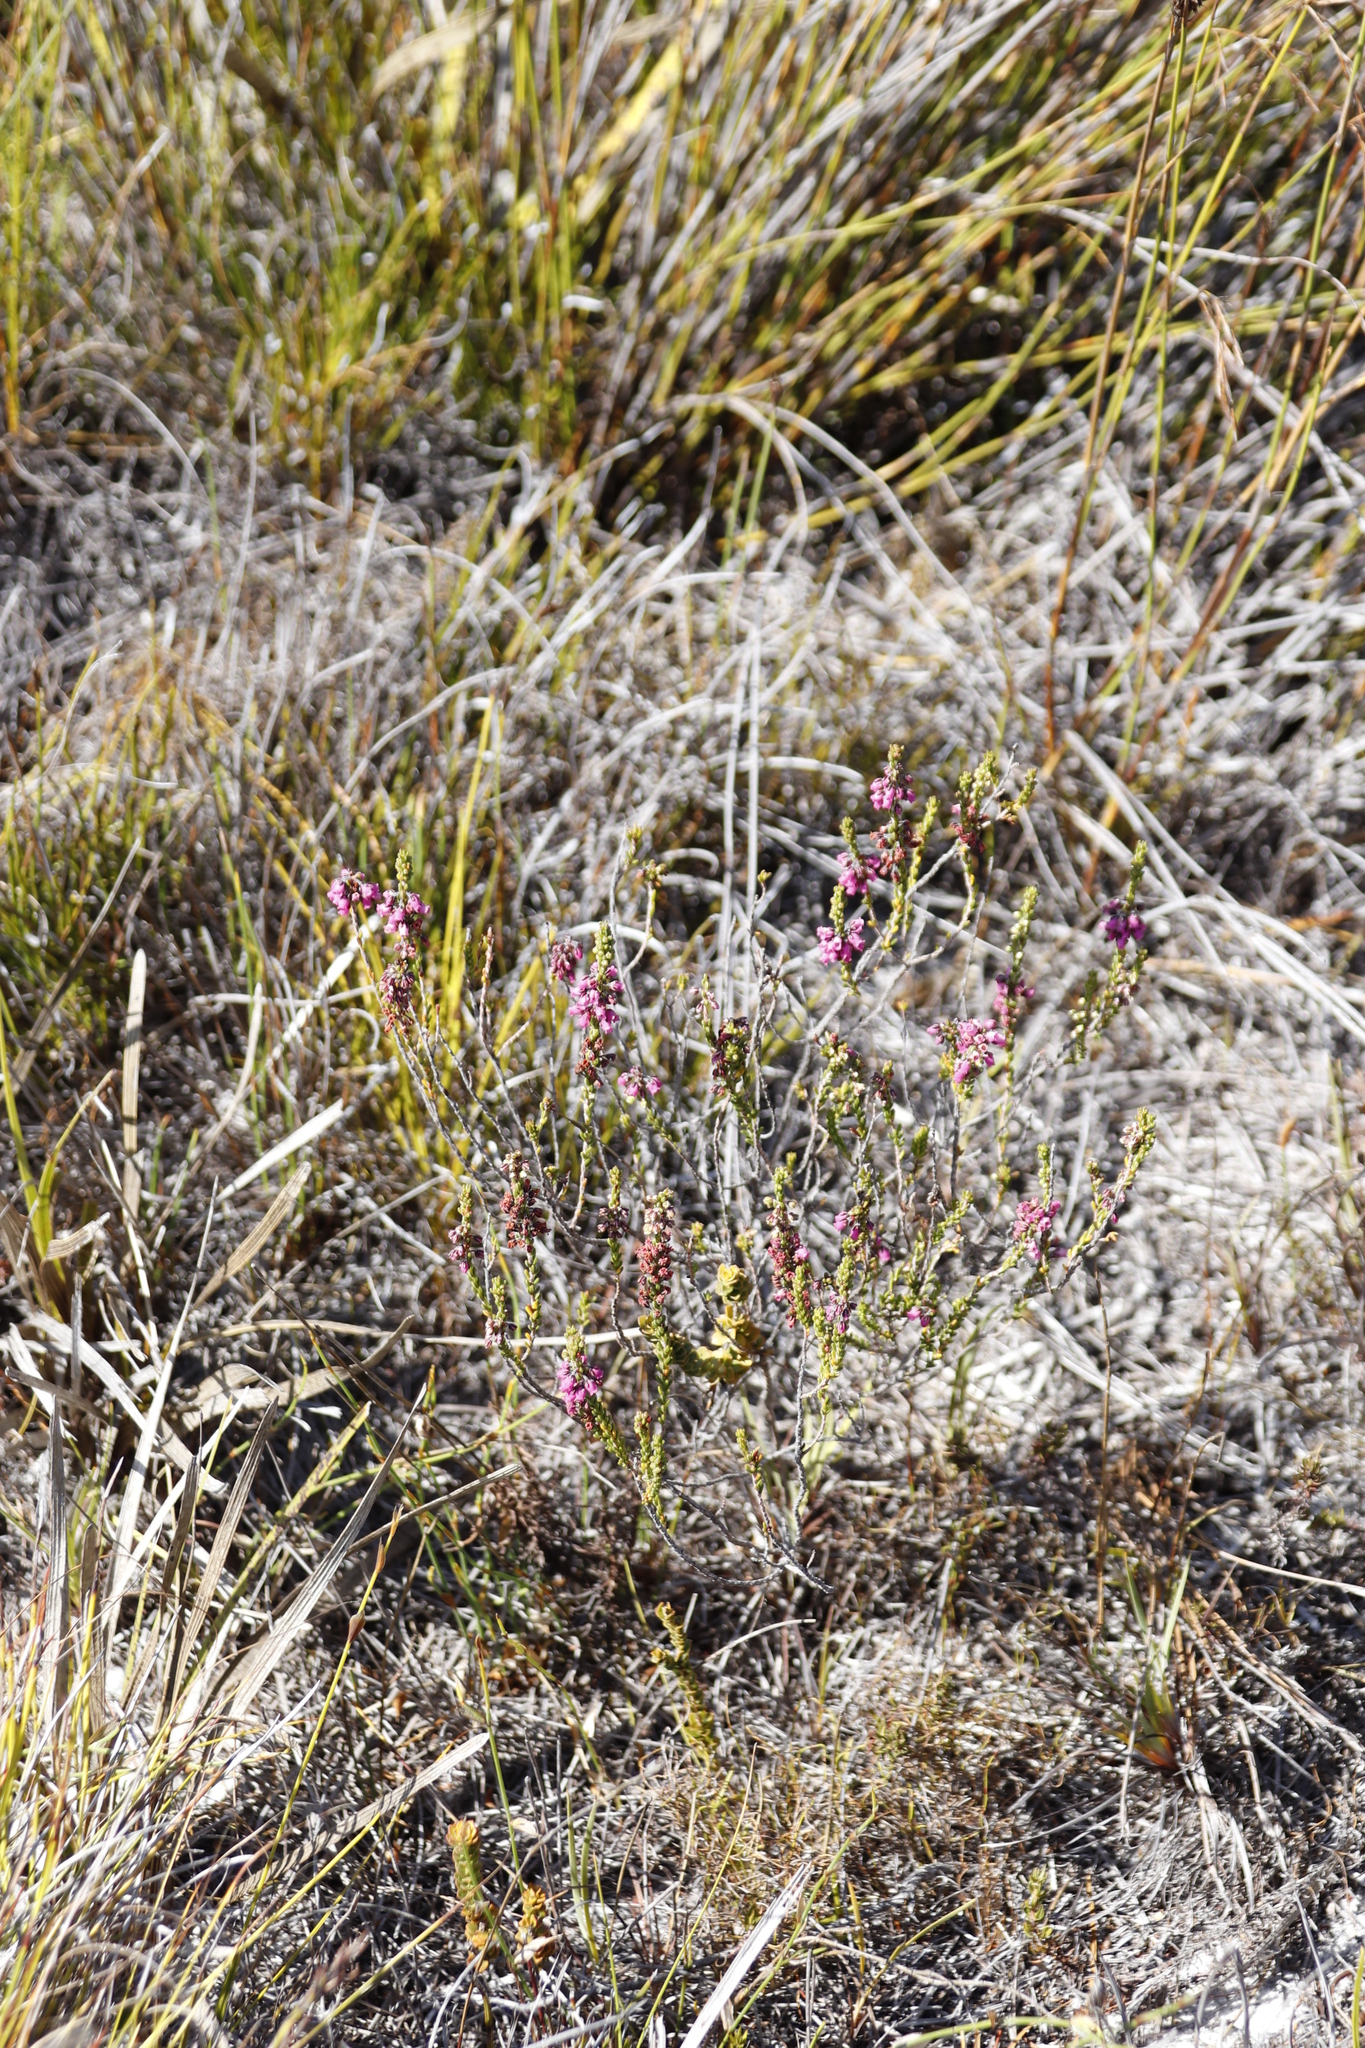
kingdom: Plantae
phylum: Tracheophyta
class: Magnoliopsida
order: Ericales
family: Ericaceae
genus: Erica
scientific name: Erica pulchella
